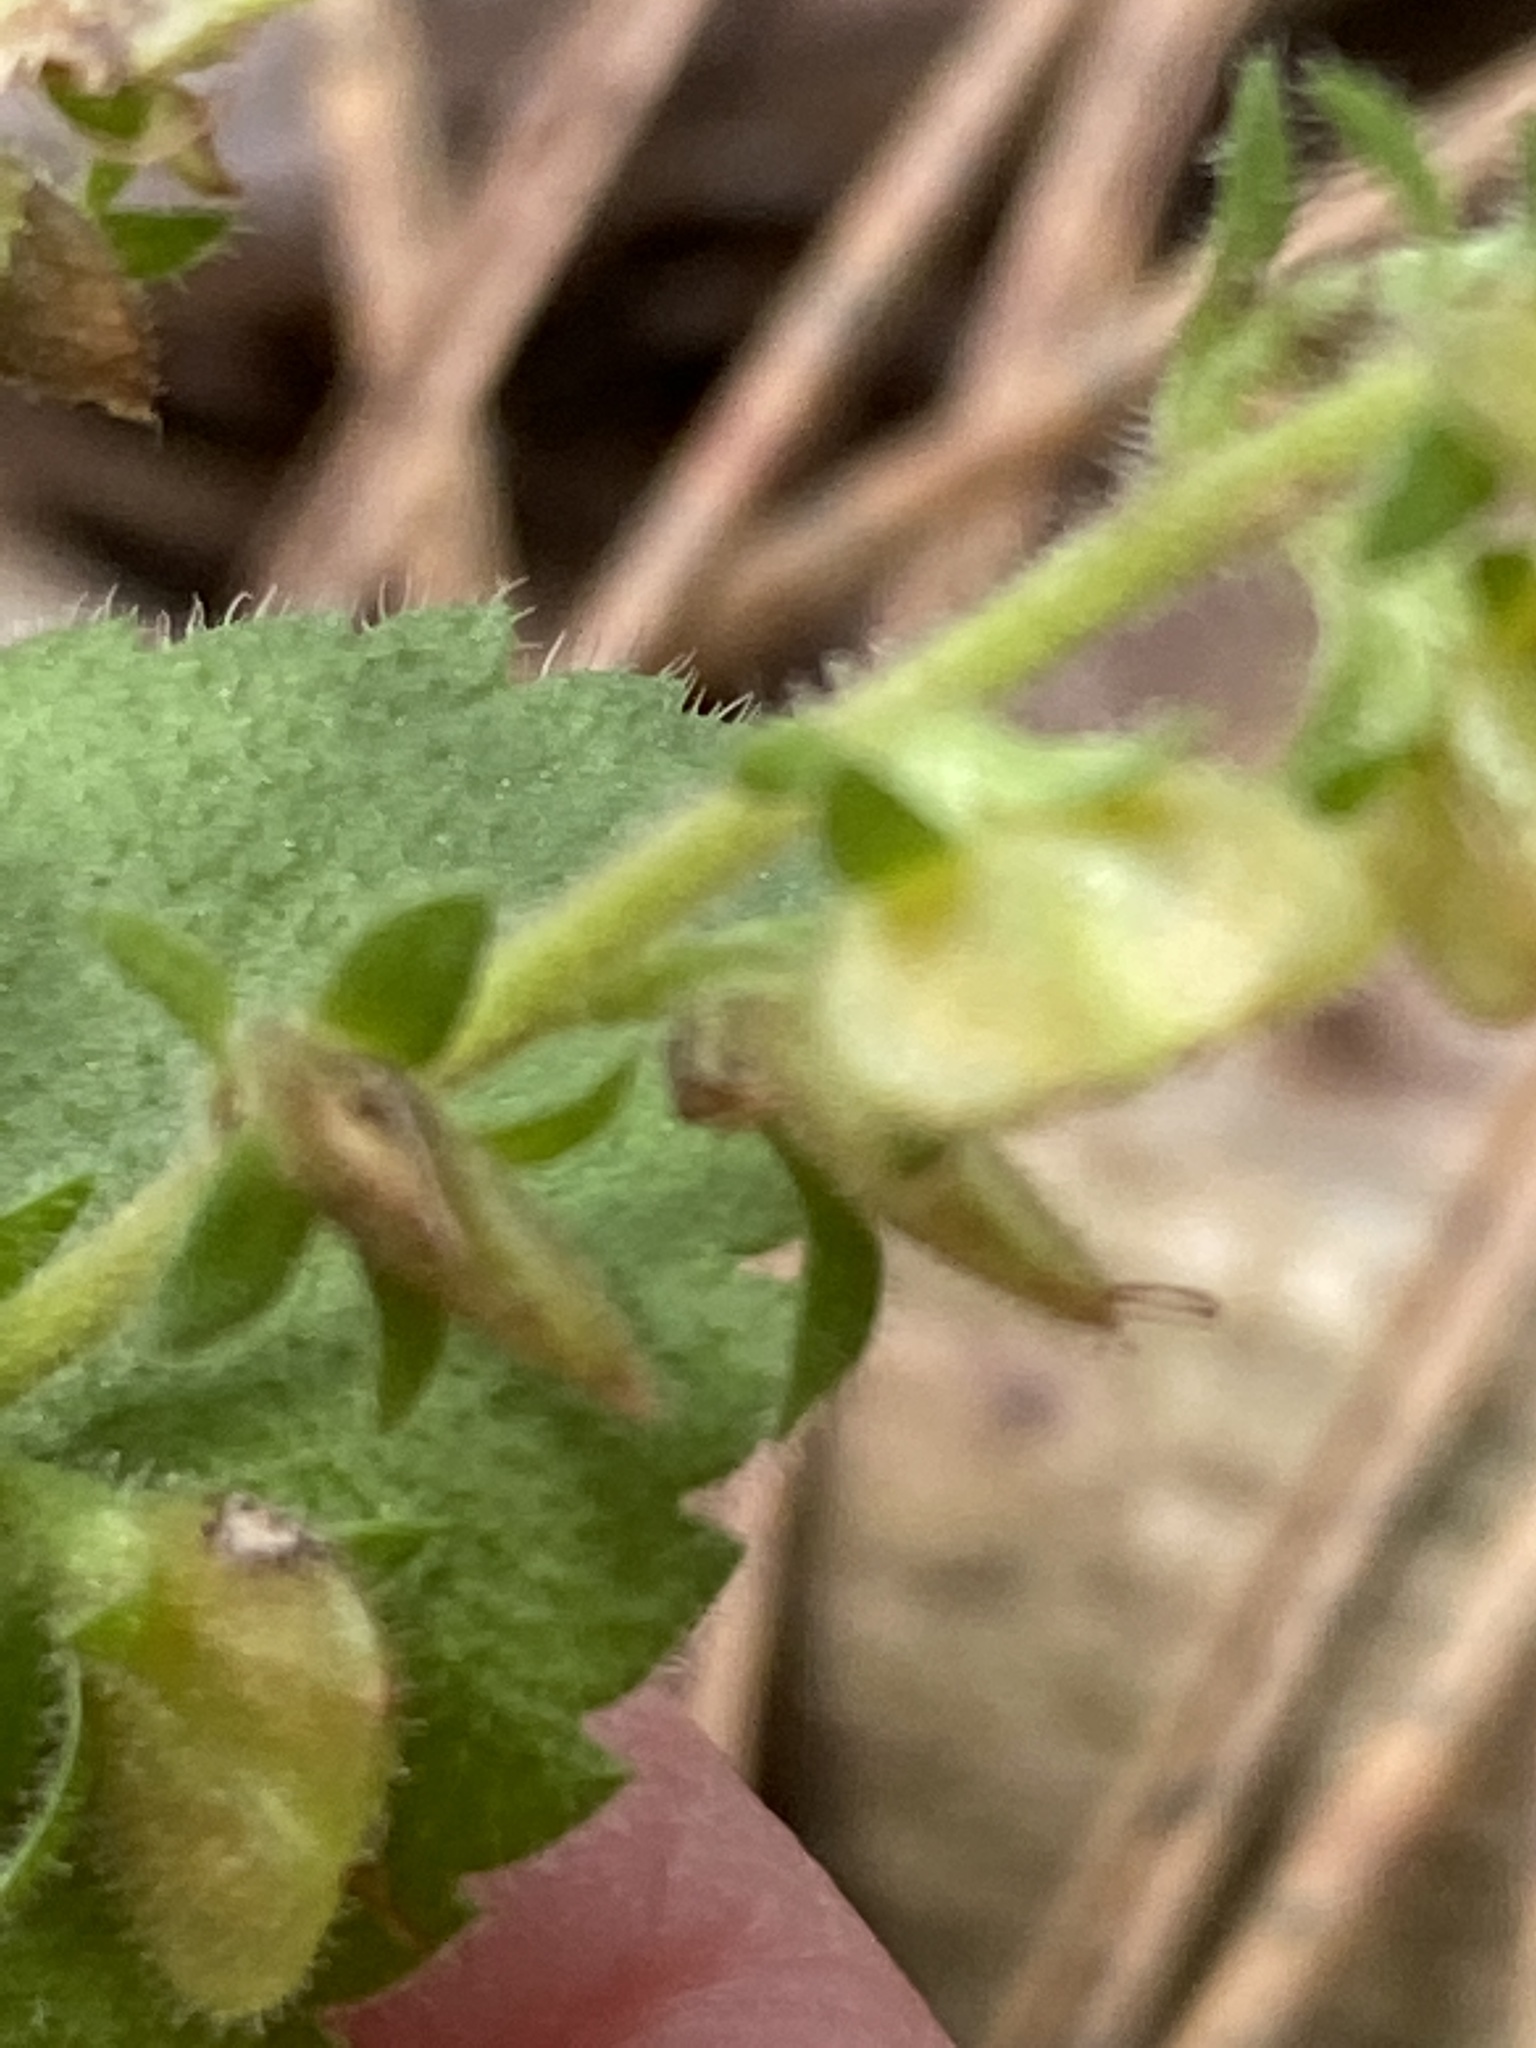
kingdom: Plantae
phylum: Tracheophyta
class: Magnoliopsida
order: Lamiales
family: Plantaginaceae
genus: Veronica
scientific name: Veronica officinalis
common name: Common speedwell
